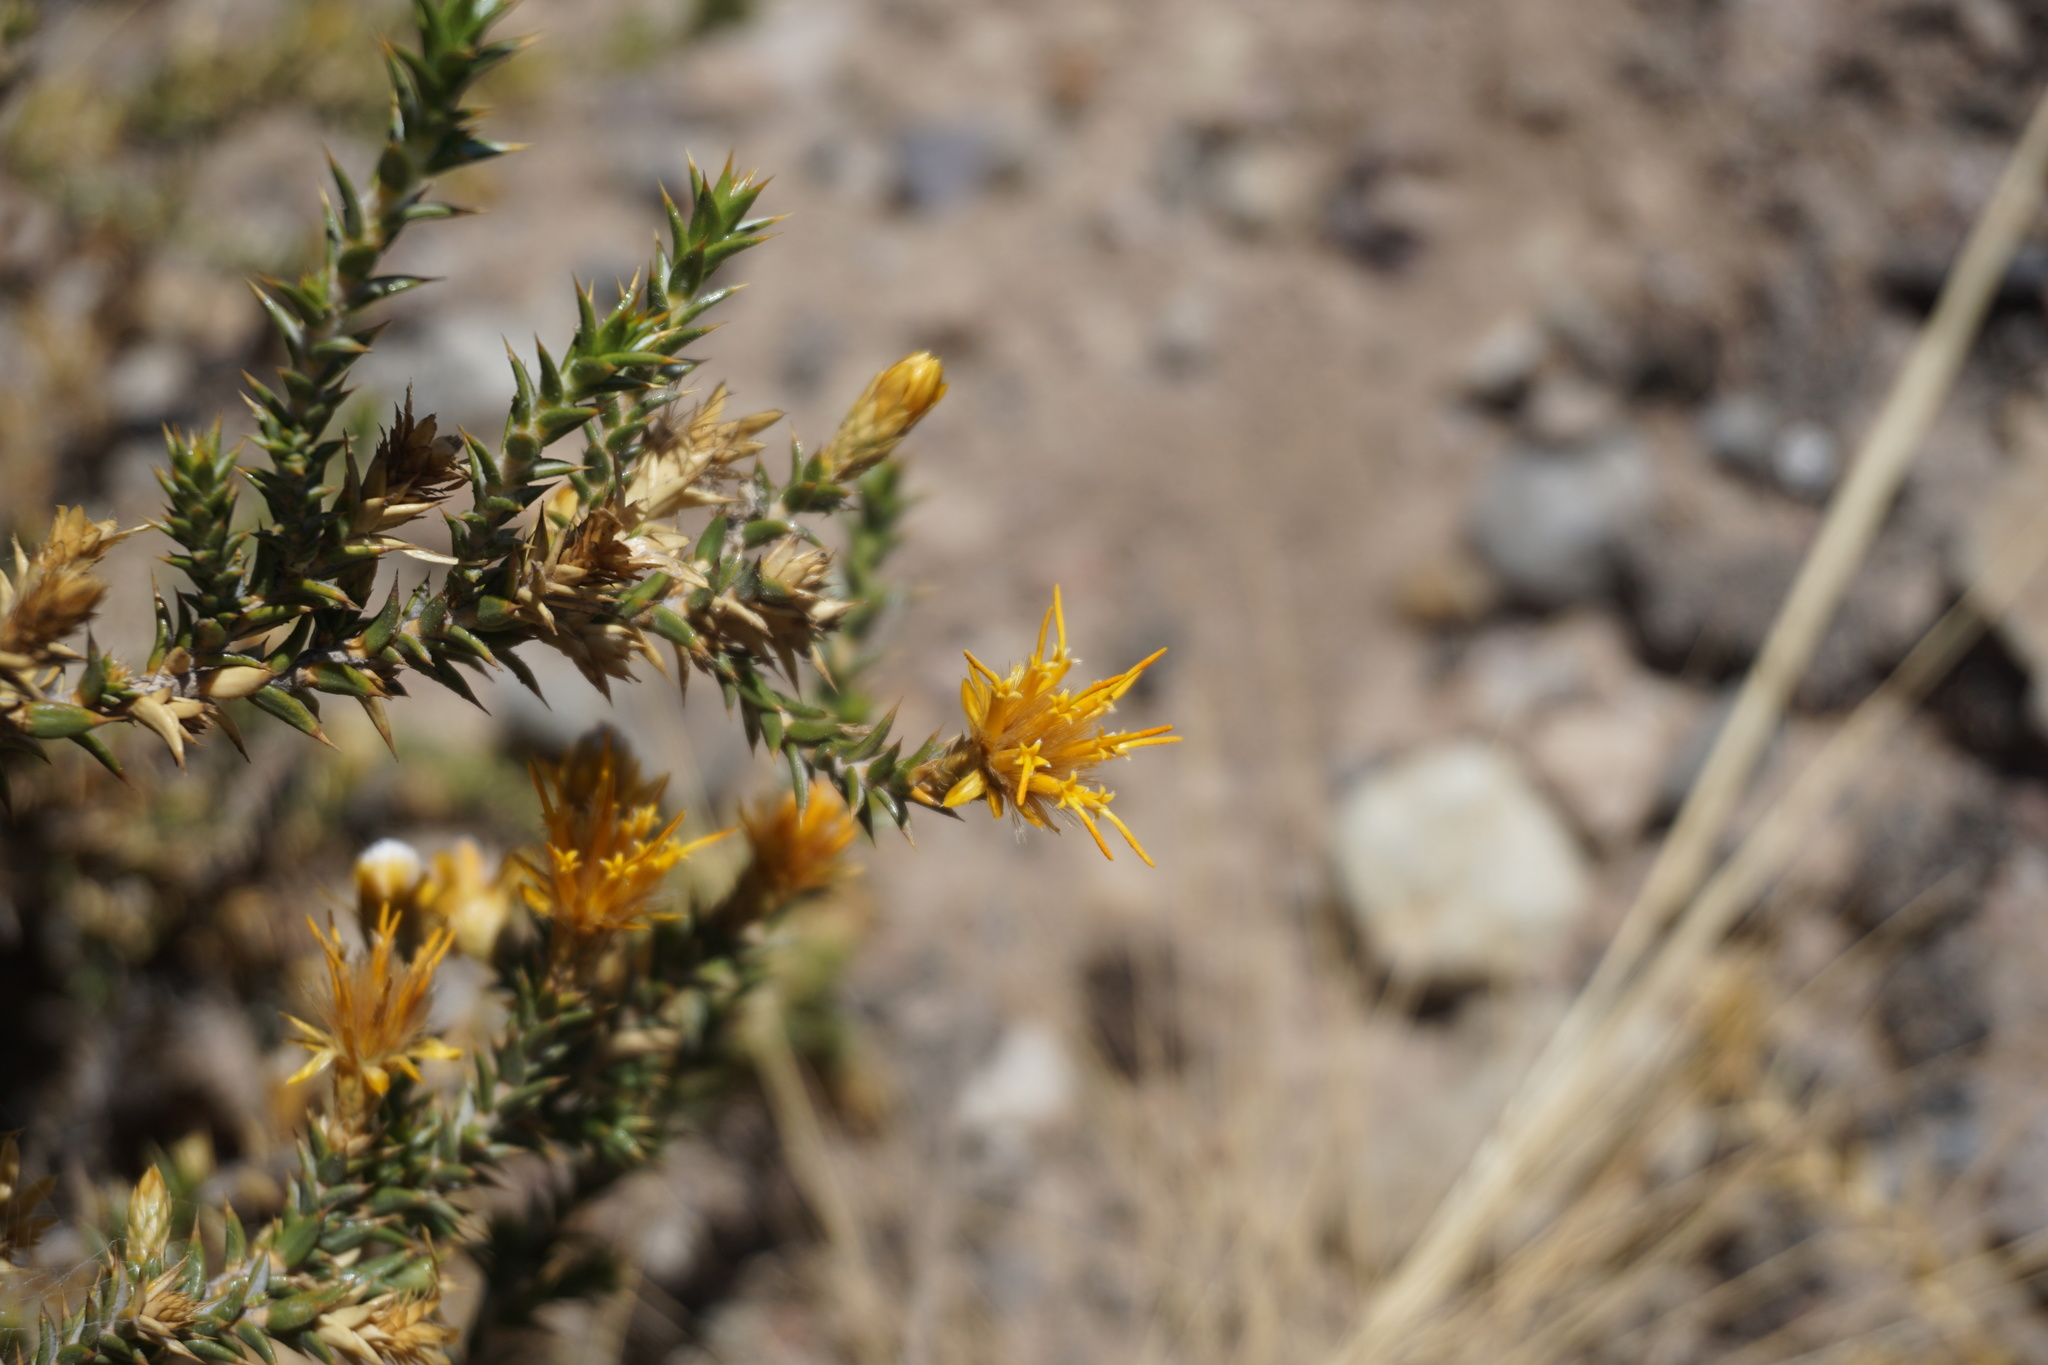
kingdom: Plantae
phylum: Tracheophyta
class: Magnoliopsida
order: Asterales
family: Asteraceae
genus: Chuquiraga
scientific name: Chuquiraga kuschelii
